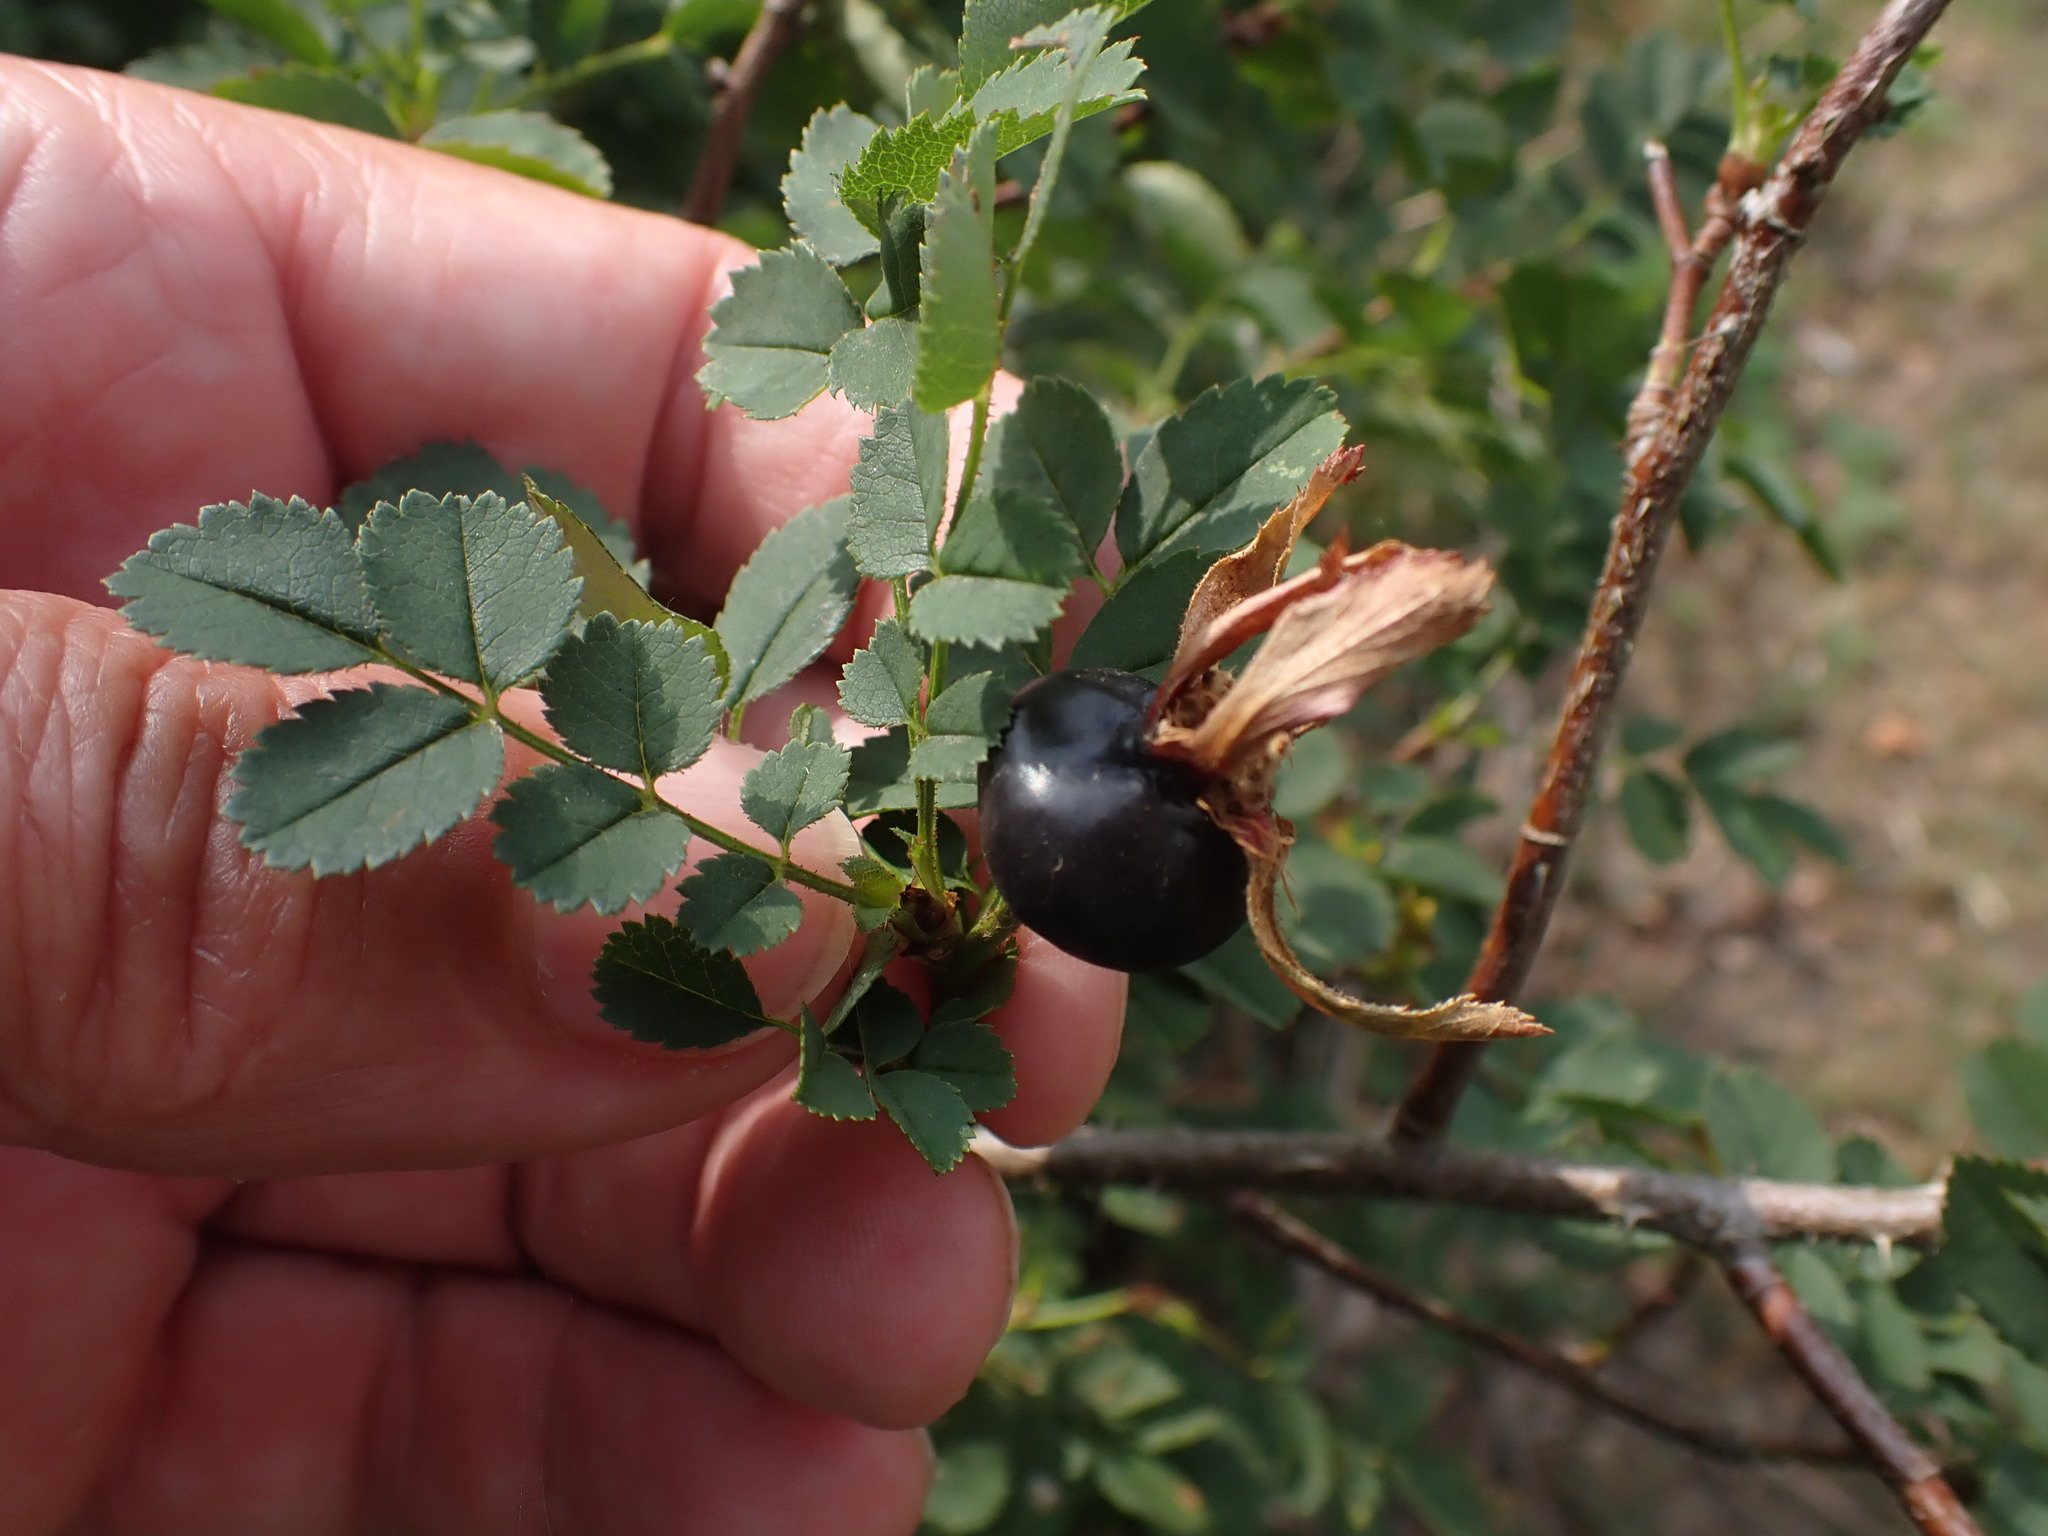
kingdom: Plantae
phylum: Tracheophyta
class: Magnoliopsida
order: Rosales
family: Rosaceae
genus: Rosa
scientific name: Rosa spinosissima
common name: Burnet rose
